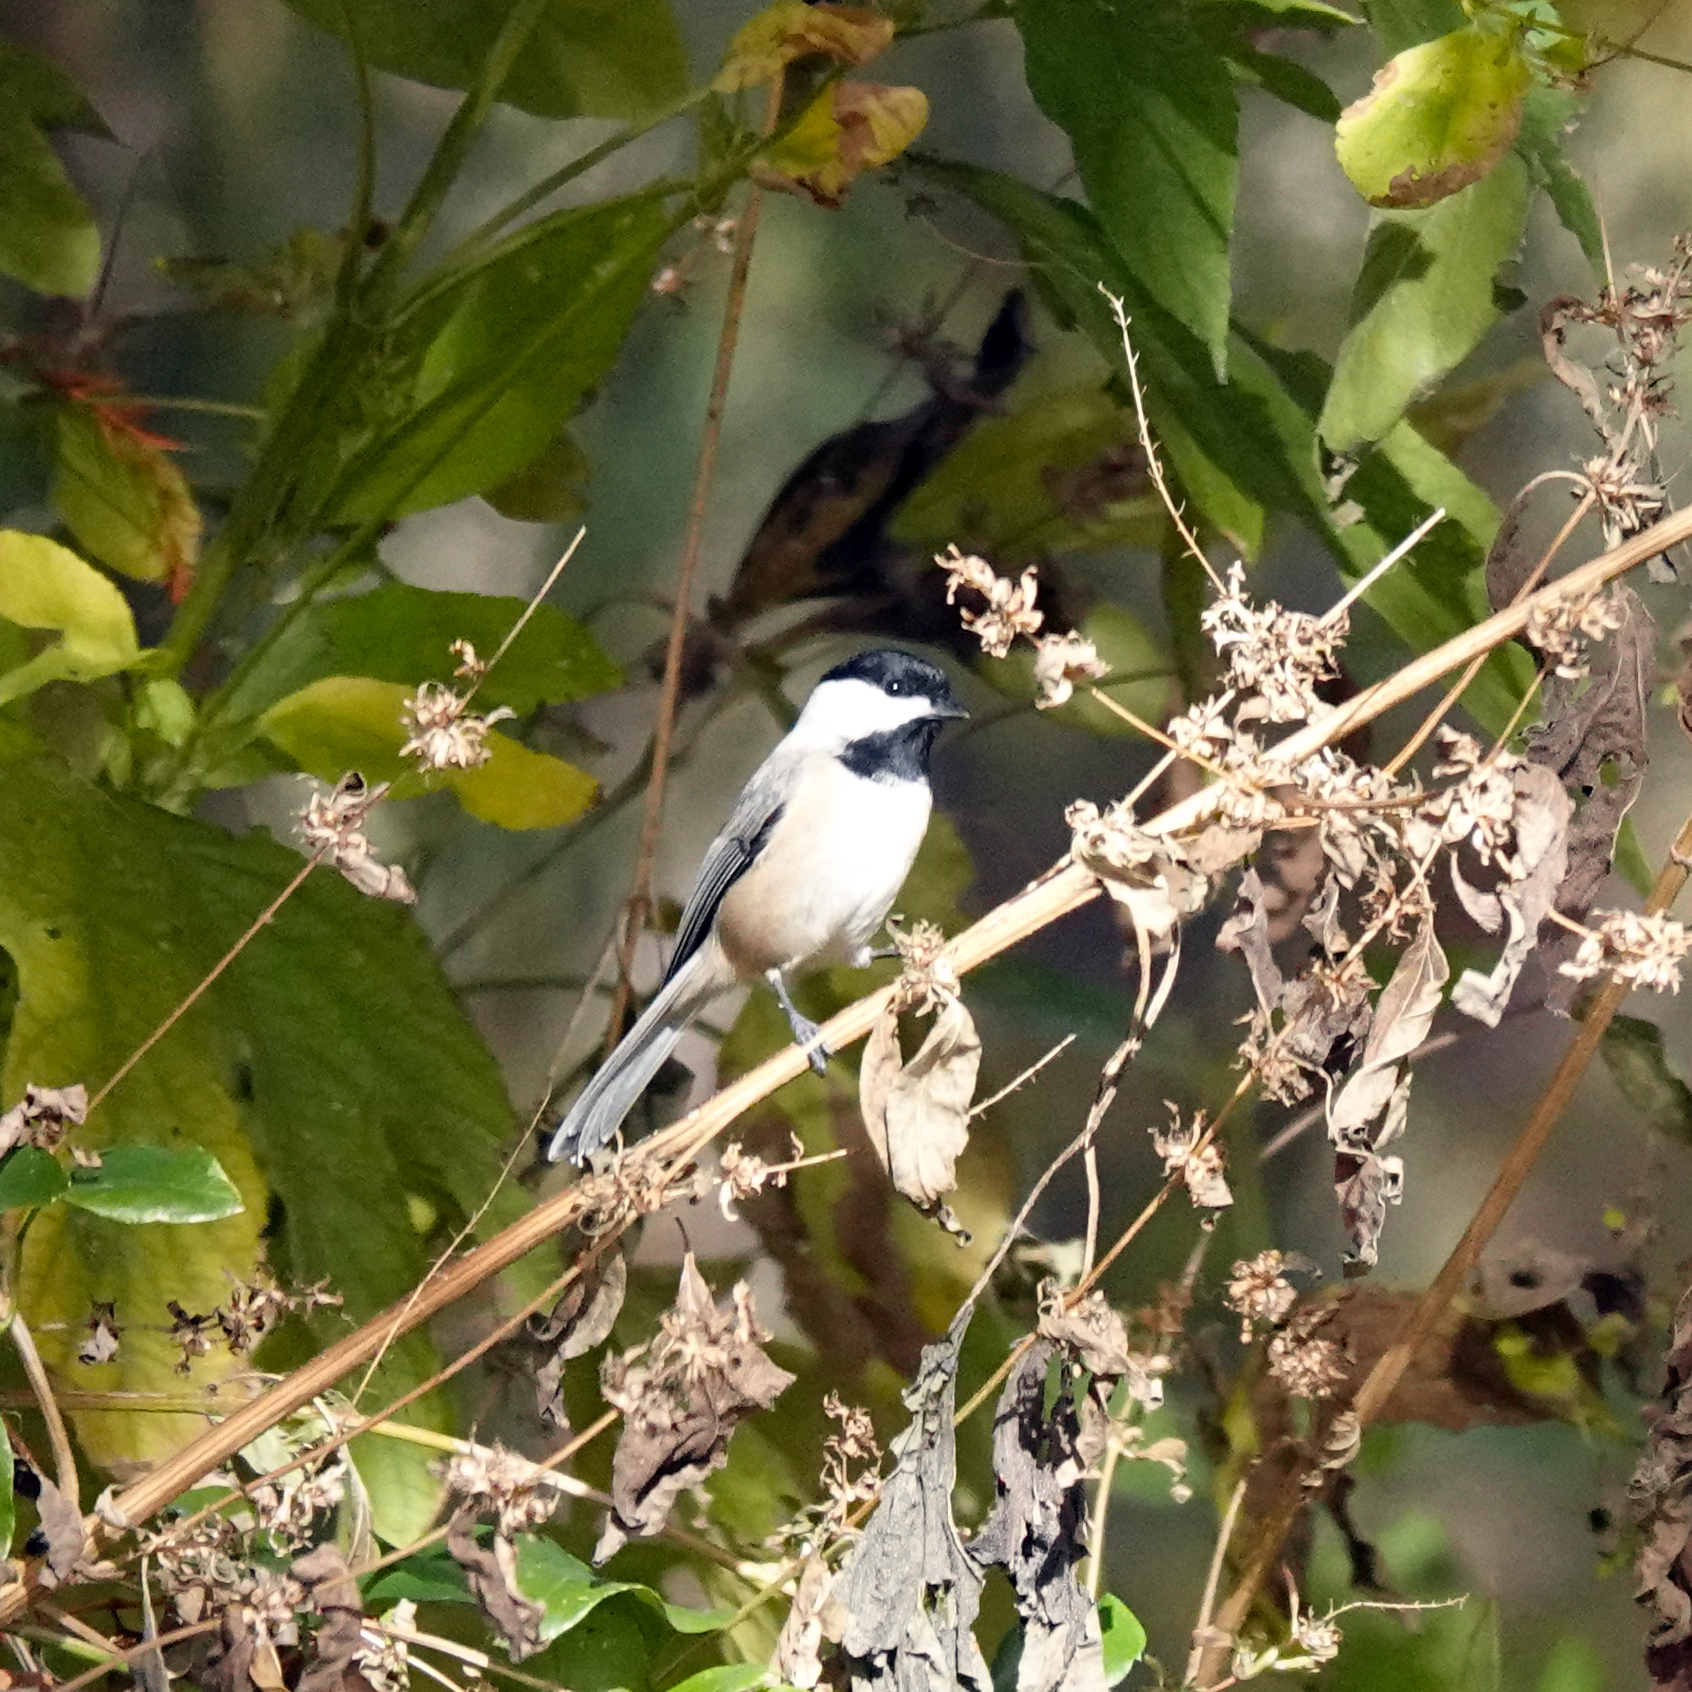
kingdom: Animalia
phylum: Chordata
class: Aves
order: Passeriformes
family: Paridae
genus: Poecile
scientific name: Poecile carolinensis
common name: Carolina chickadee
